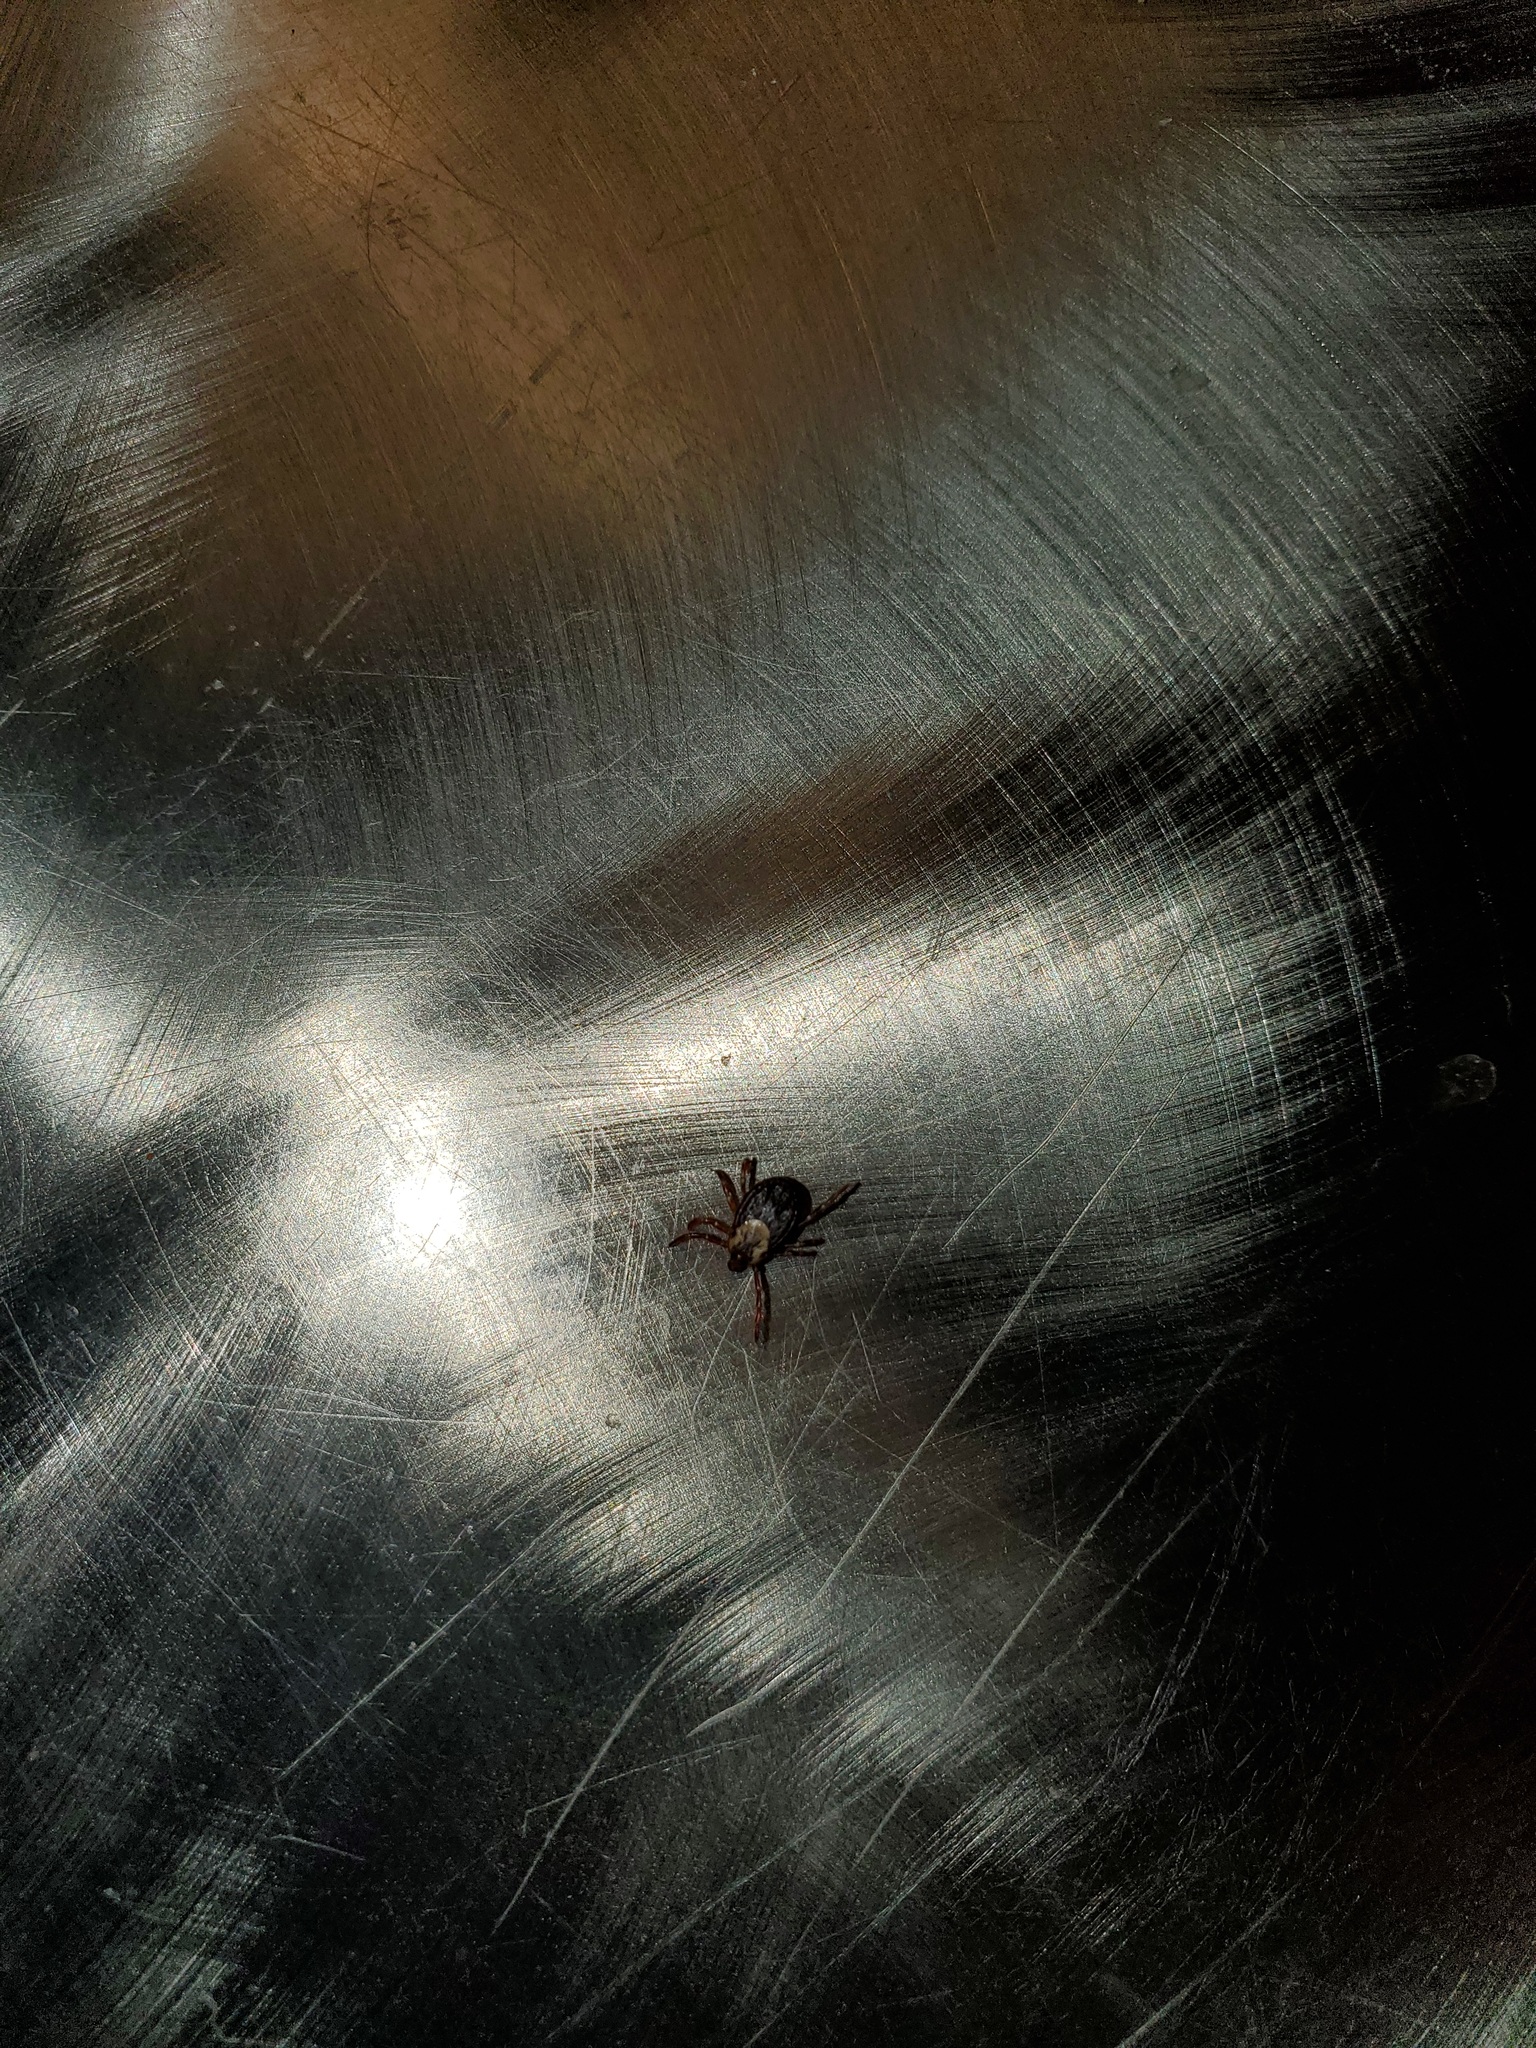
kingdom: Animalia
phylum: Arthropoda
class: Arachnida
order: Ixodida
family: Ixodidae
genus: Dermacentor
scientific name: Dermacentor variabilis
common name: American dog tick
